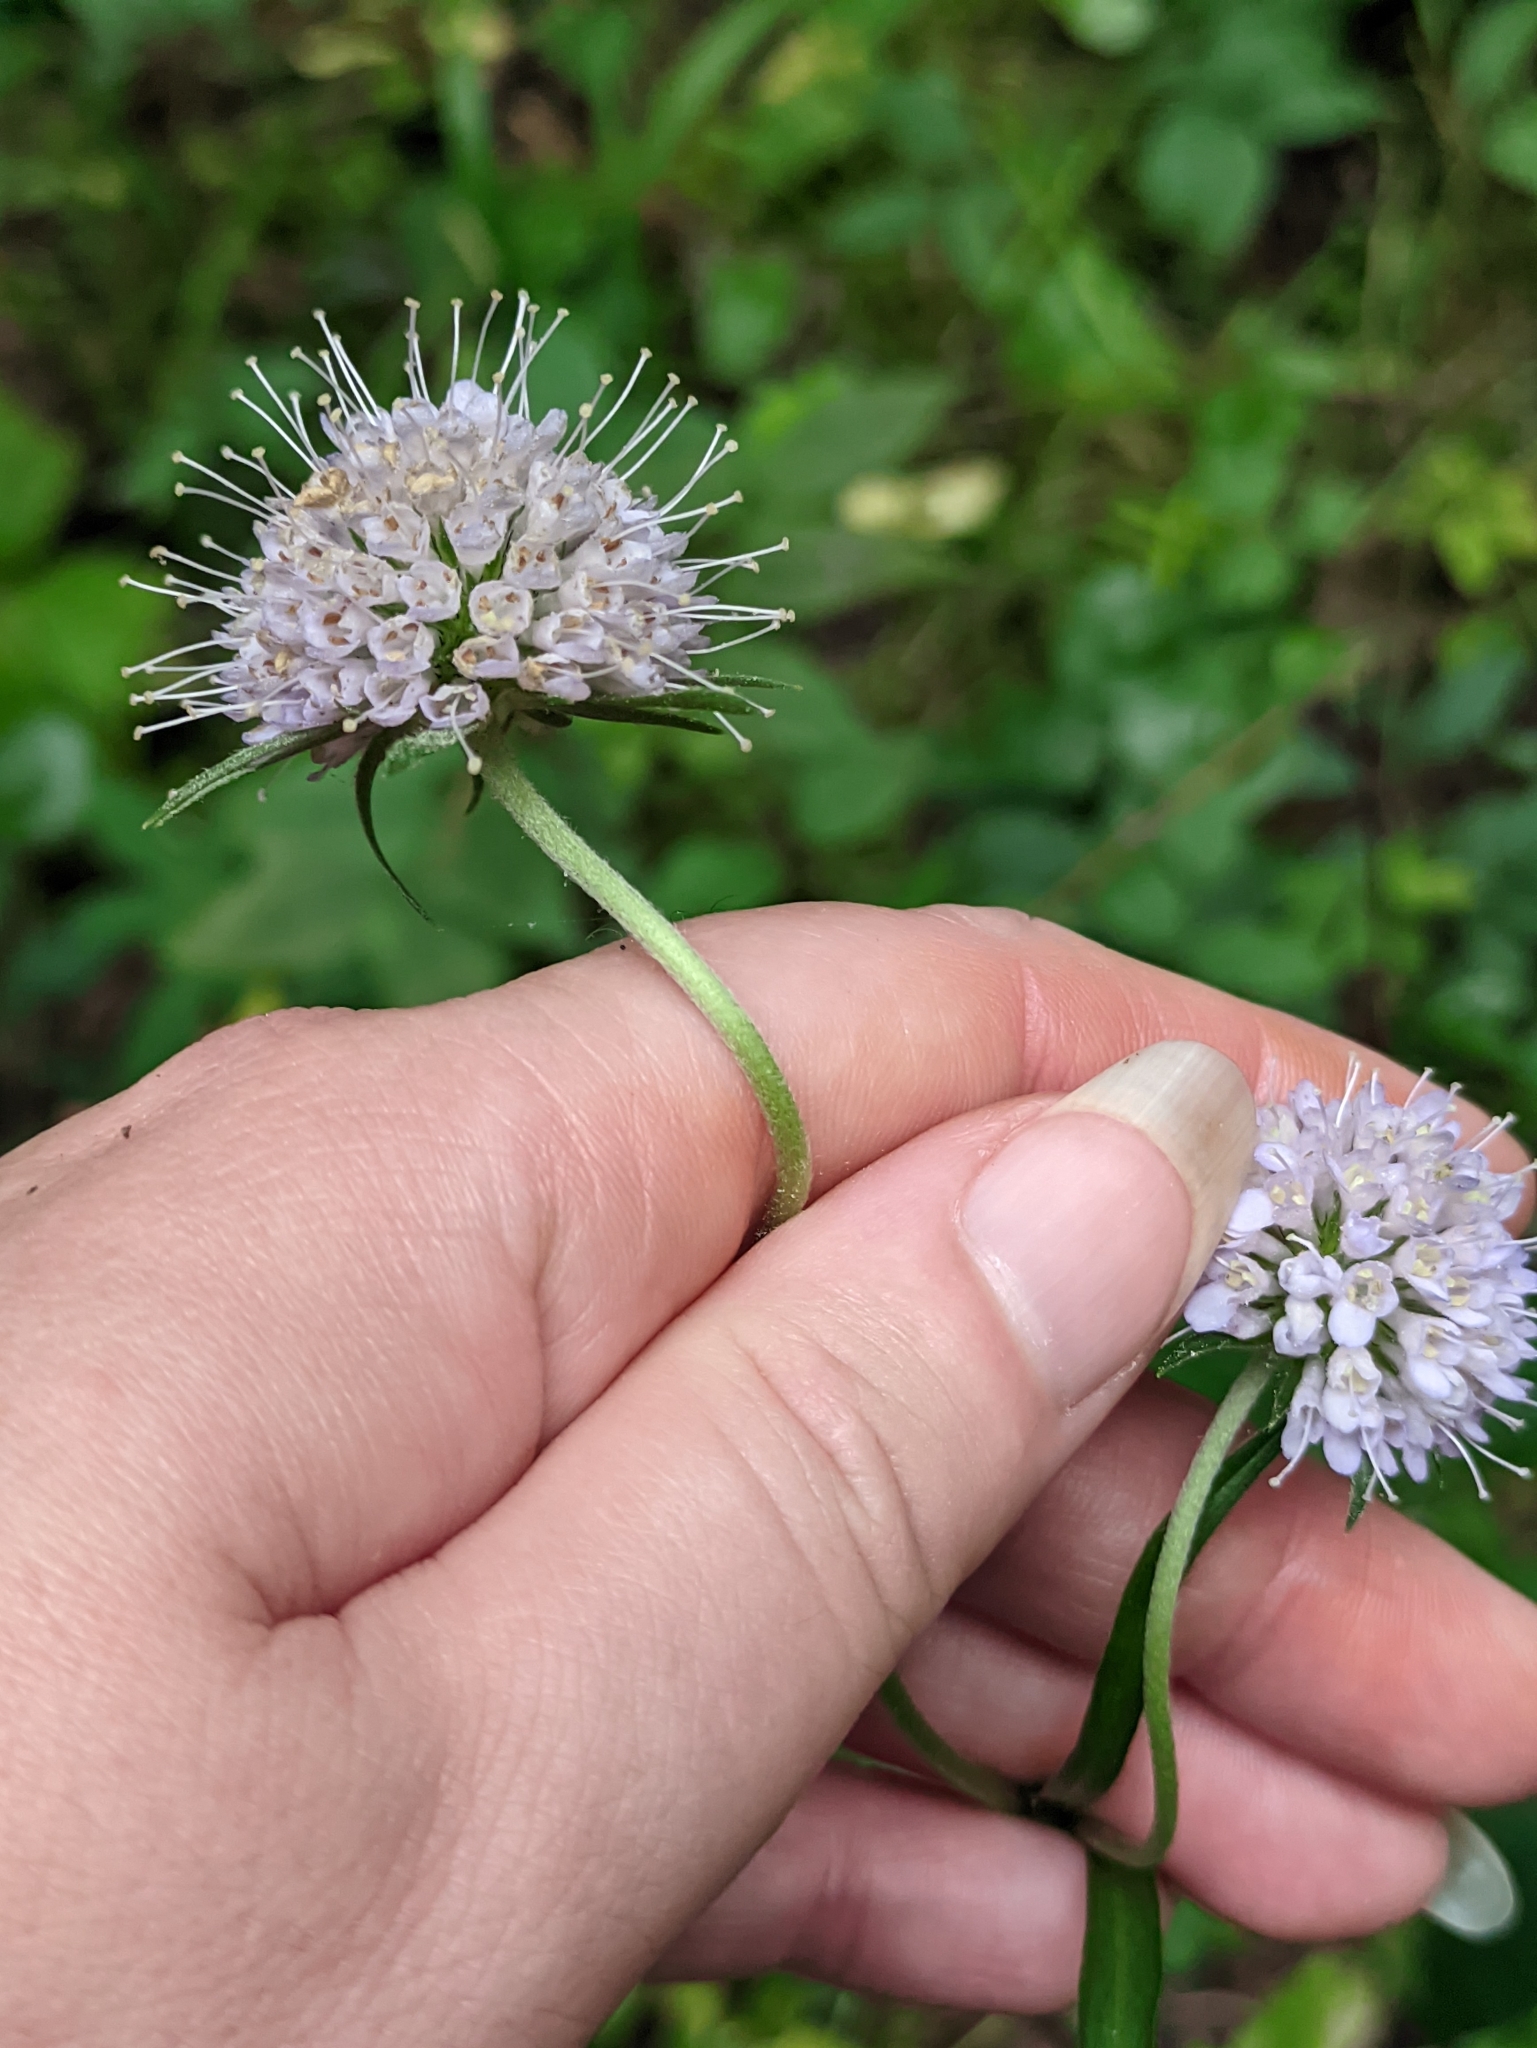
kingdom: Plantae
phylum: Tracheophyta
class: Magnoliopsida
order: Dipsacales
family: Caprifoliaceae
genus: Succisa
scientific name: Succisa pratensis
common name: Devil's-bit
